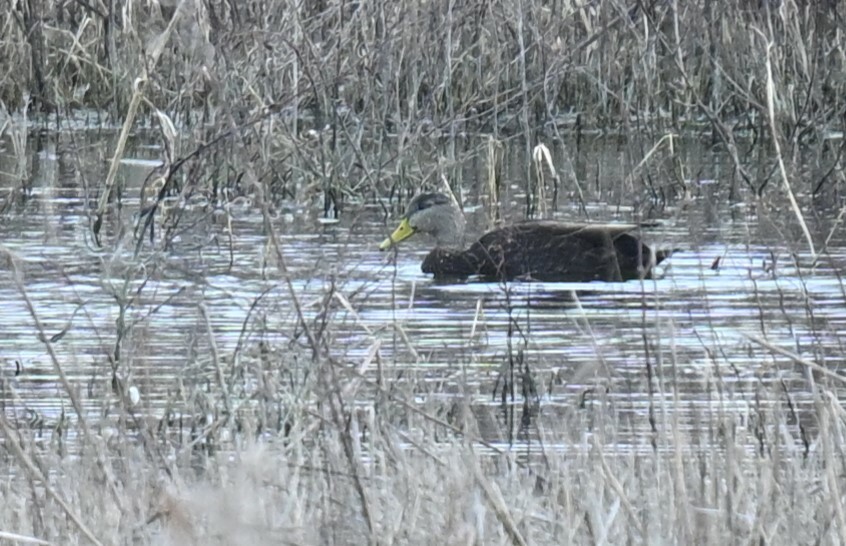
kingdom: Animalia
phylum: Chordata
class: Aves
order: Anseriformes
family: Anatidae
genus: Anas
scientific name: Anas rubripes
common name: American black duck
